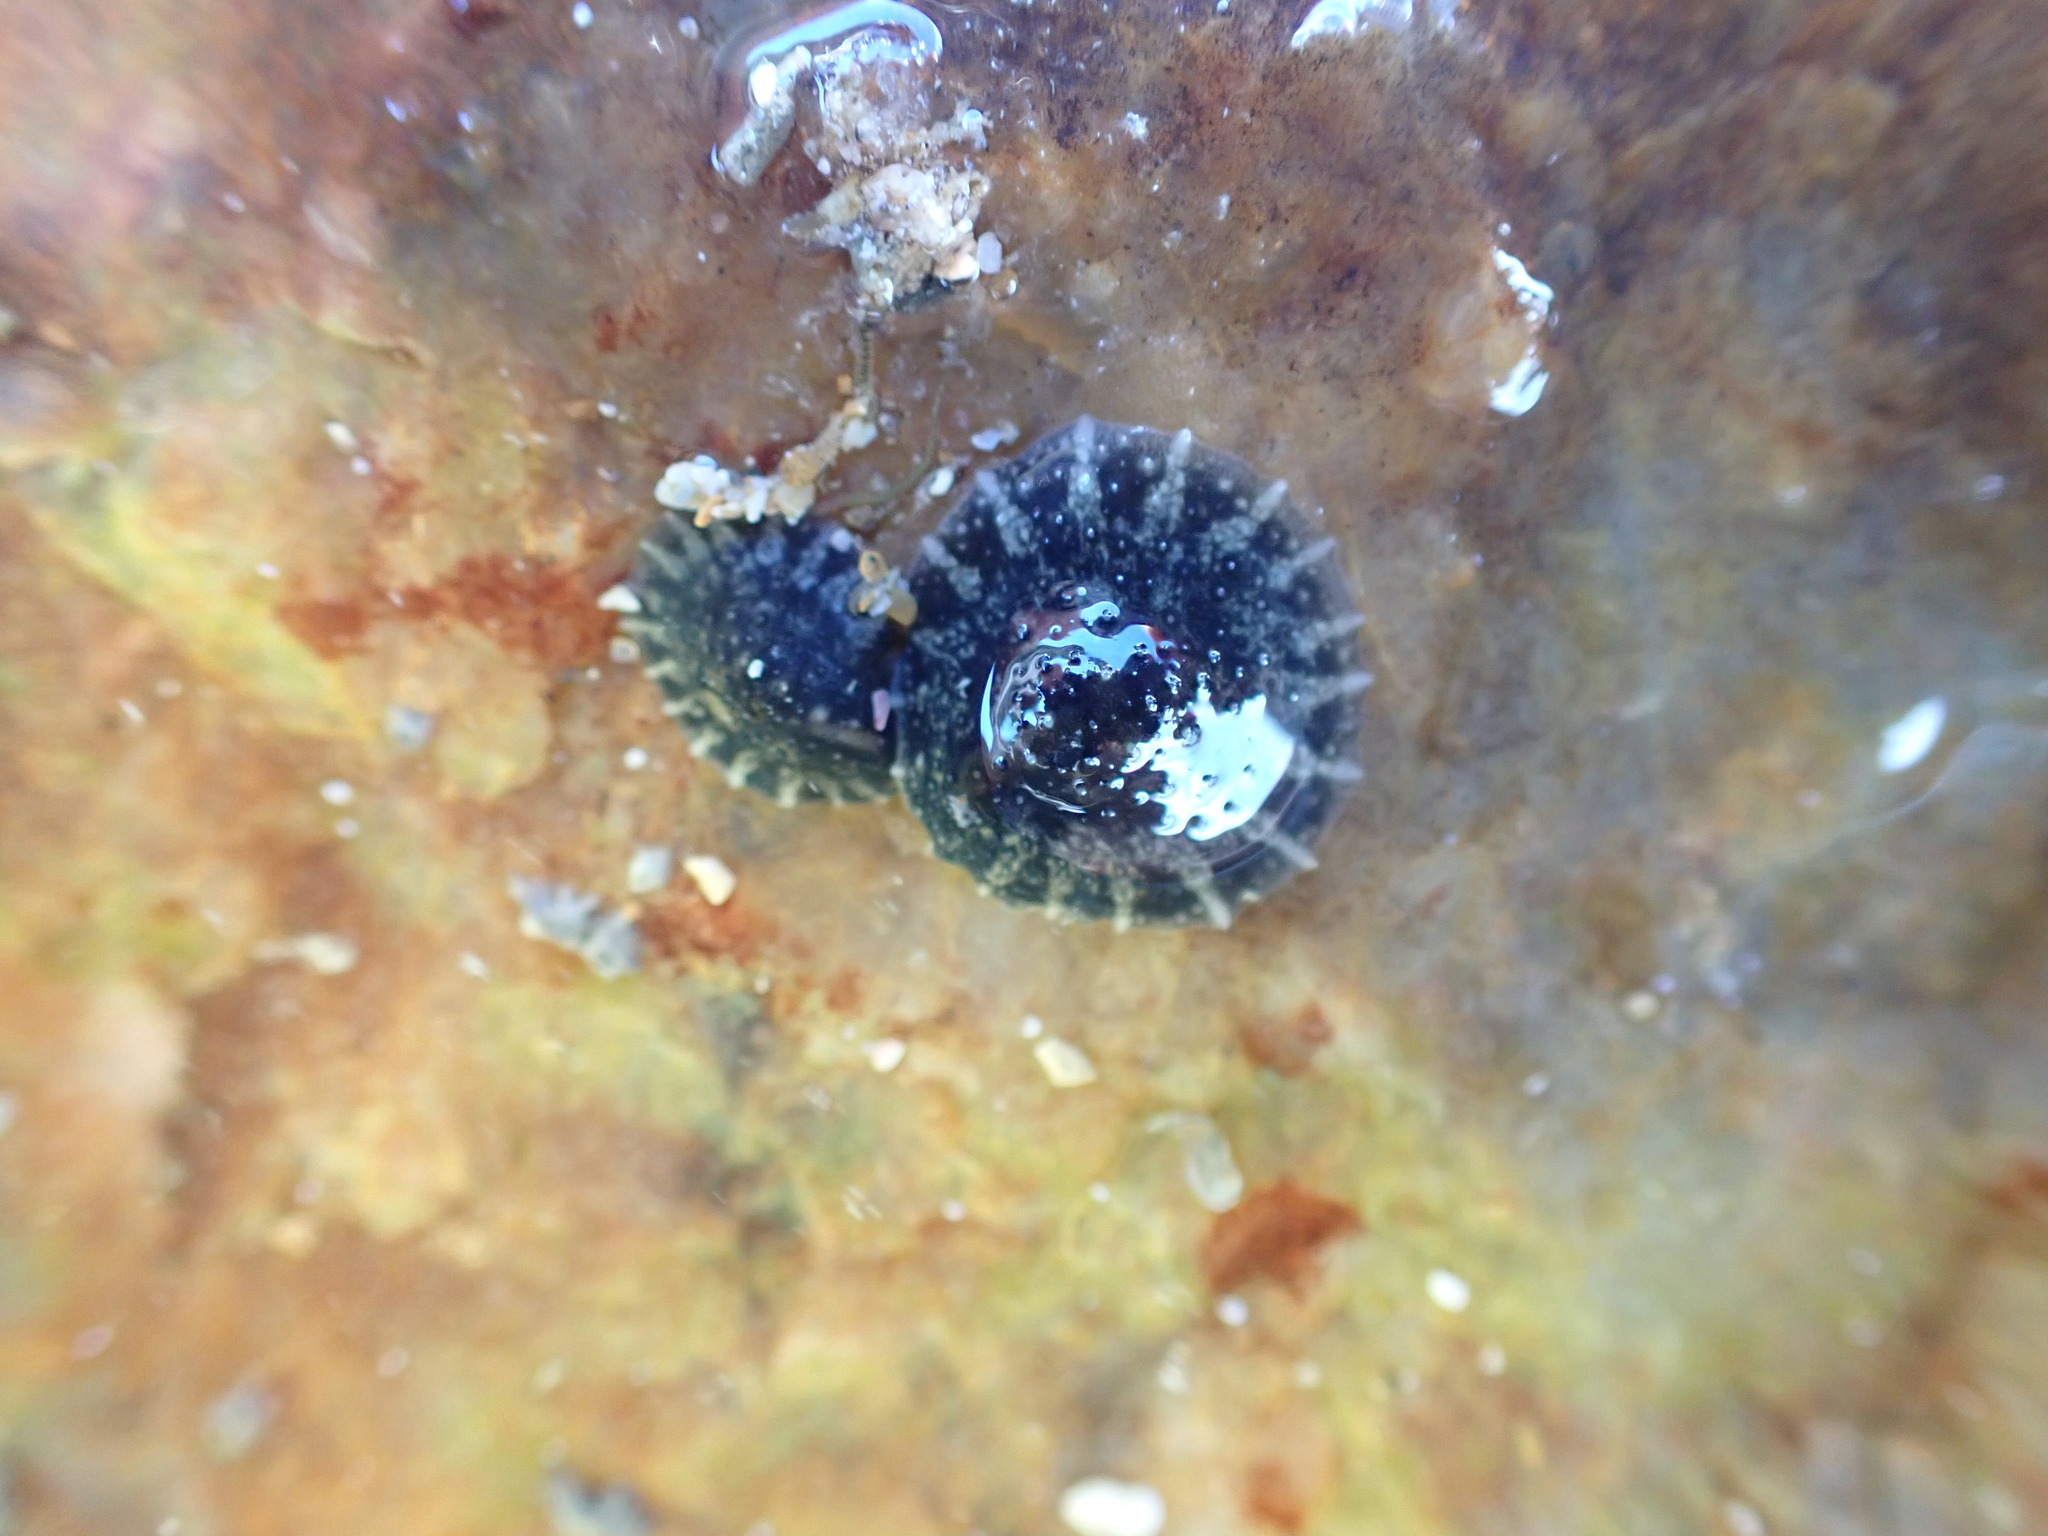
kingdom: Animalia
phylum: Mollusca
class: Gastropoda
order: Systellommatophora
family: Onchidiidae
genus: Onchidella
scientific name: Onchidella nigricans
